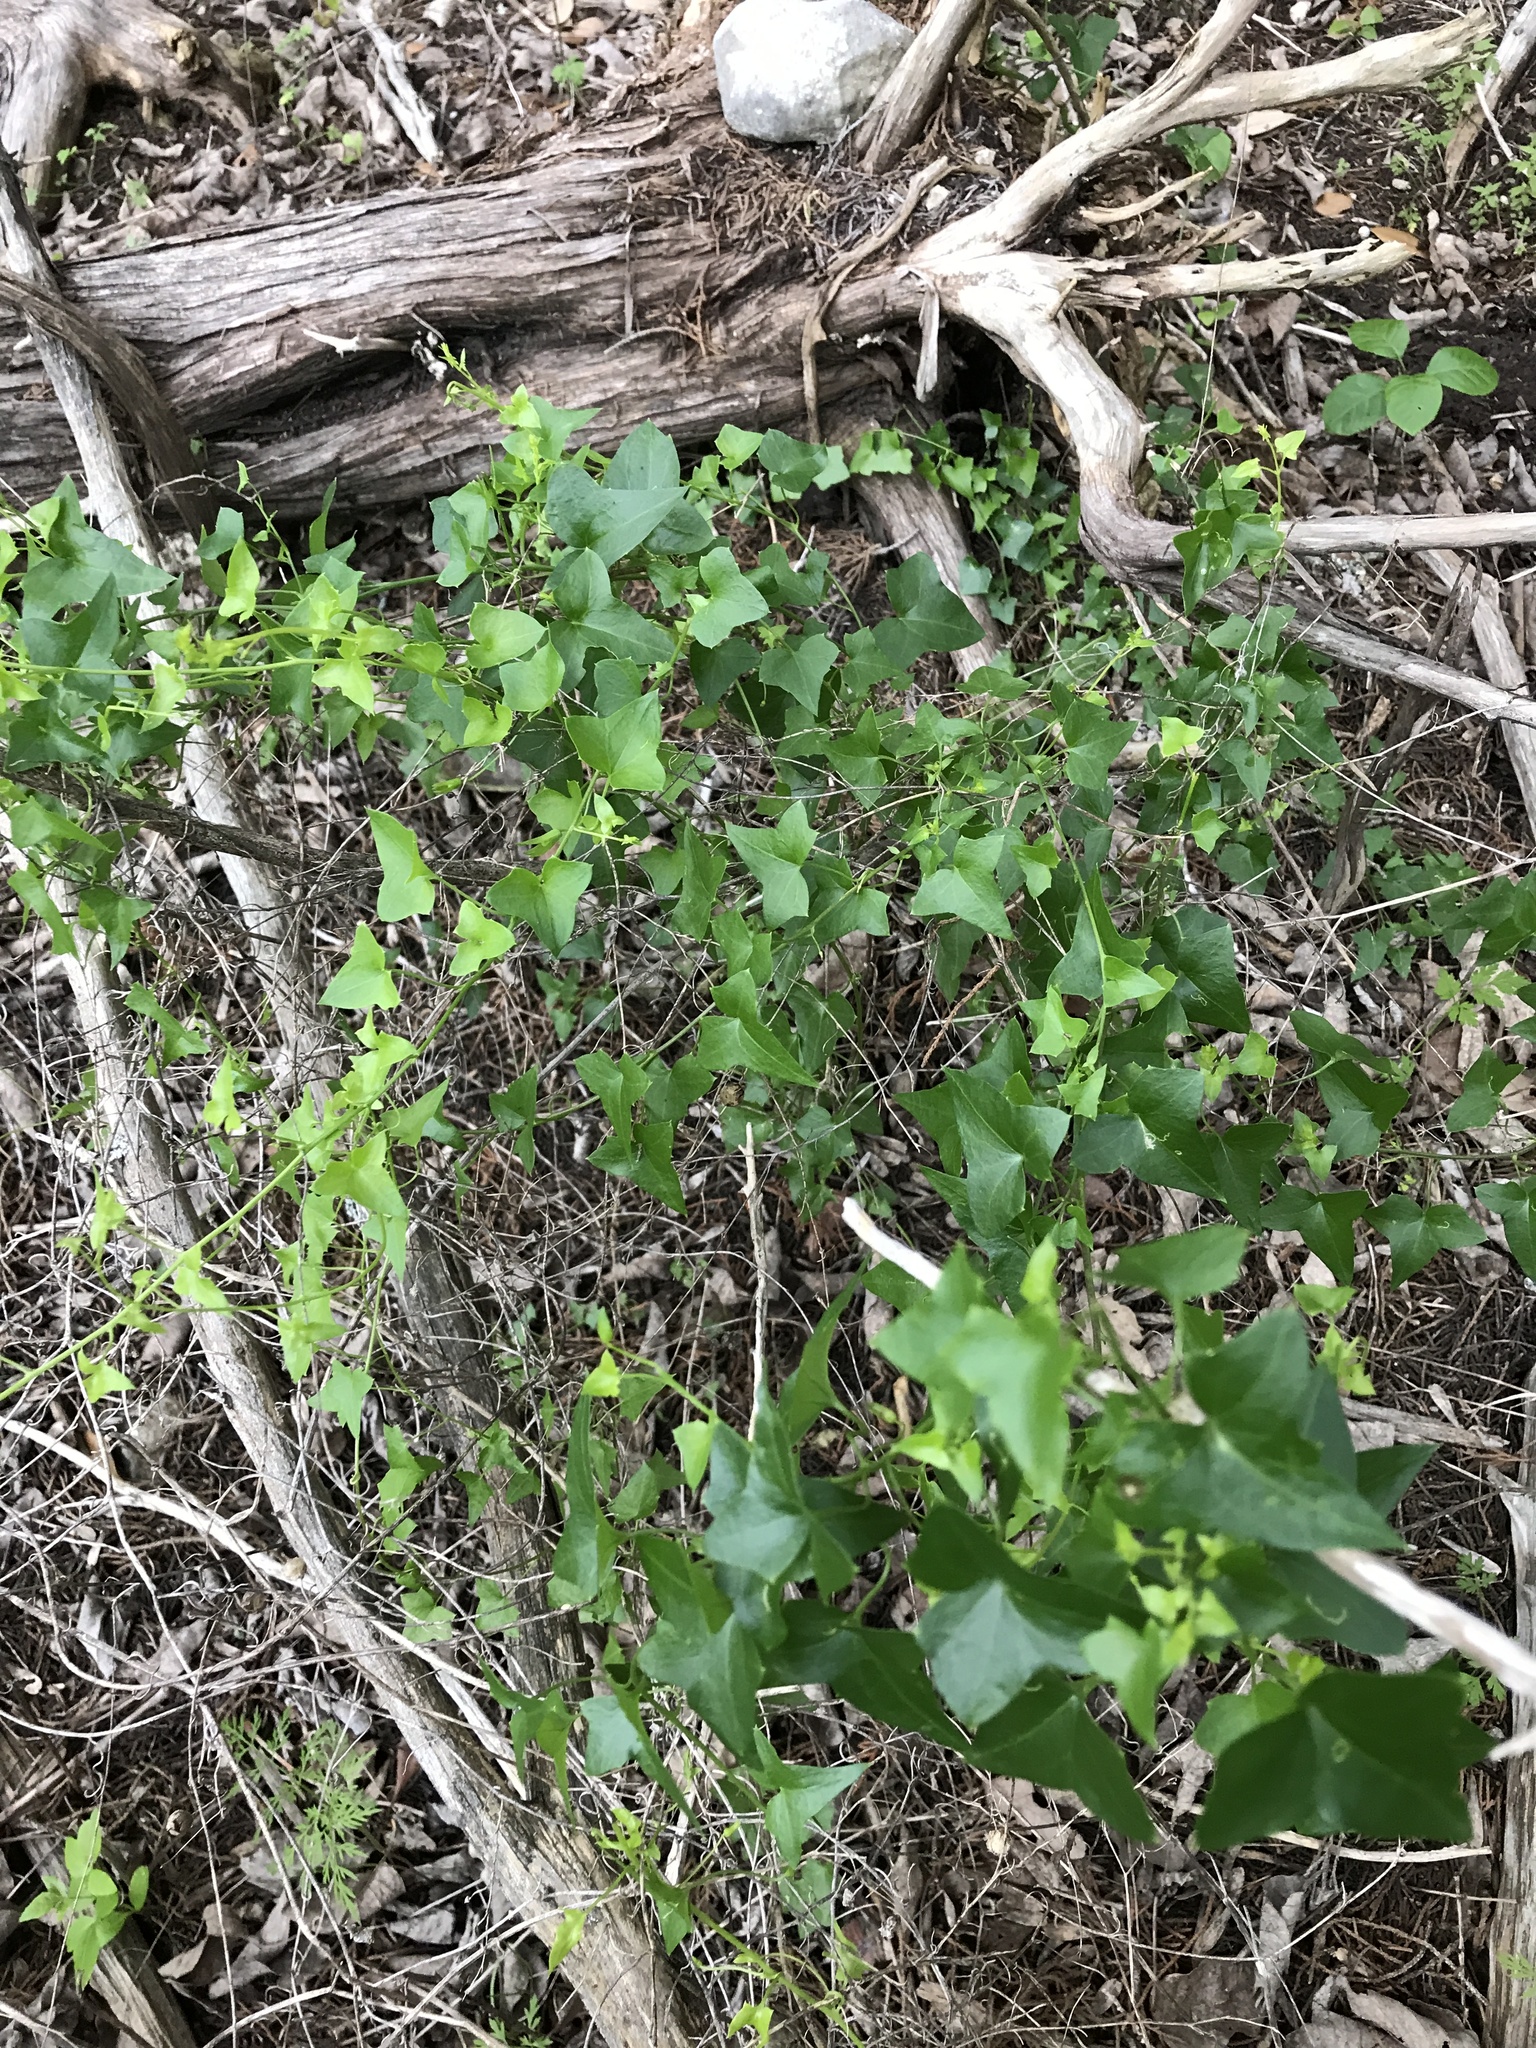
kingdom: Plantae
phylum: Tracheophyta
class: Magnoliopsida
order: Lamiales
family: Plantaginaceae
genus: Maurandella
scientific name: Maurandella antirrhiniflora
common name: Violet twining-snapdragon
